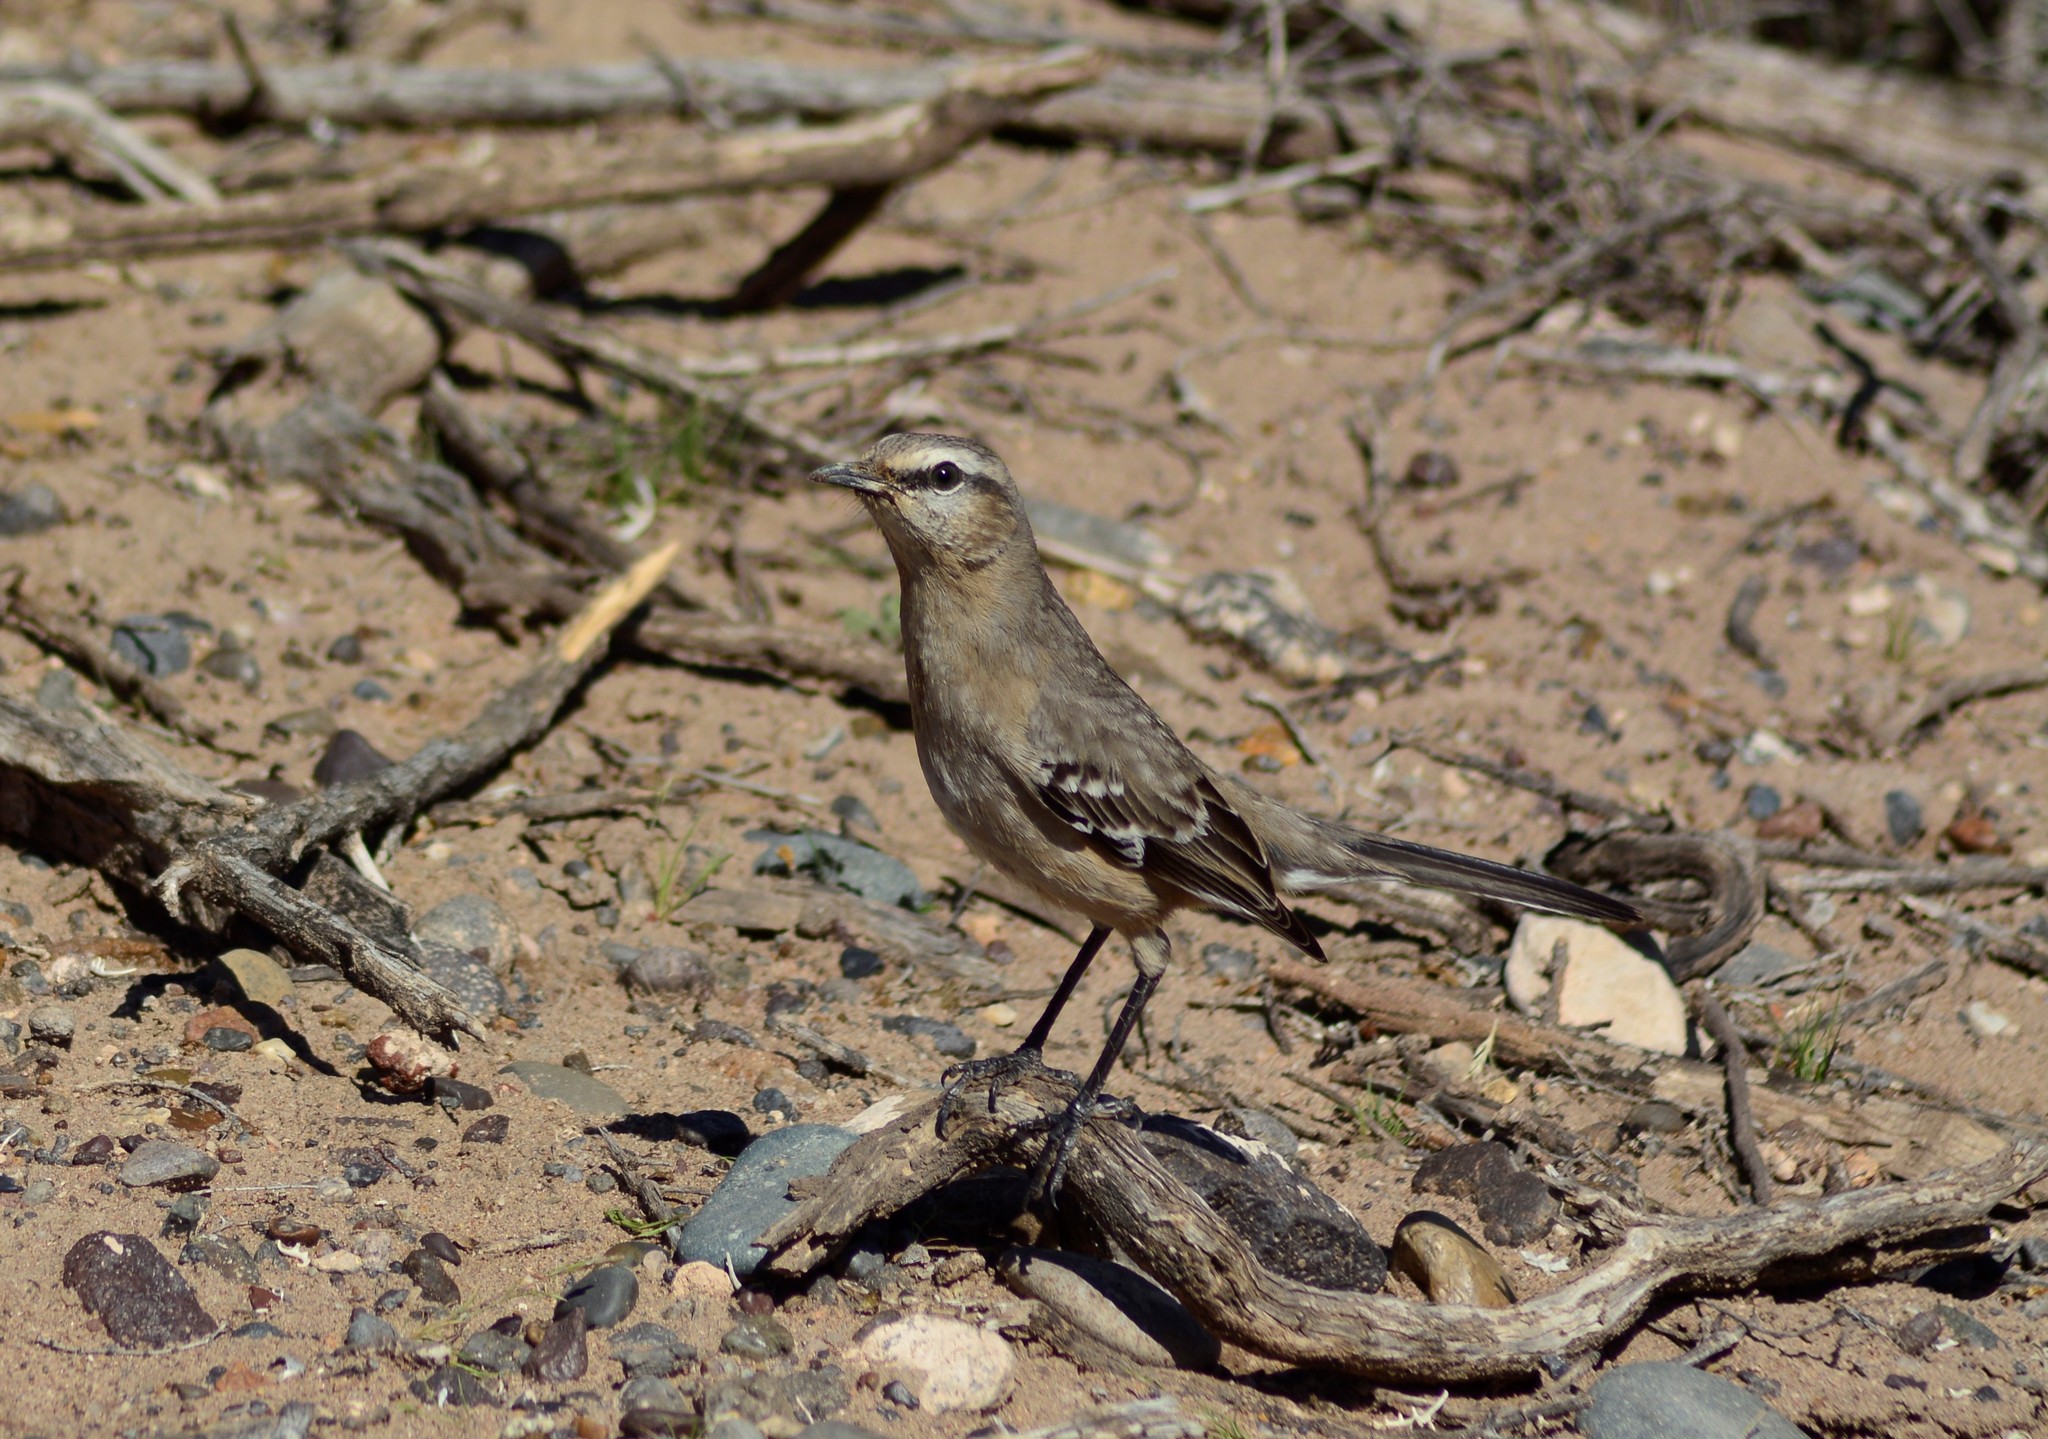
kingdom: Animalia
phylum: Chordata
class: Aves
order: Passeriformes
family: Mimidae
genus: Mimus
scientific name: Mimus patagonicus
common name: Patagonian mockingbird
